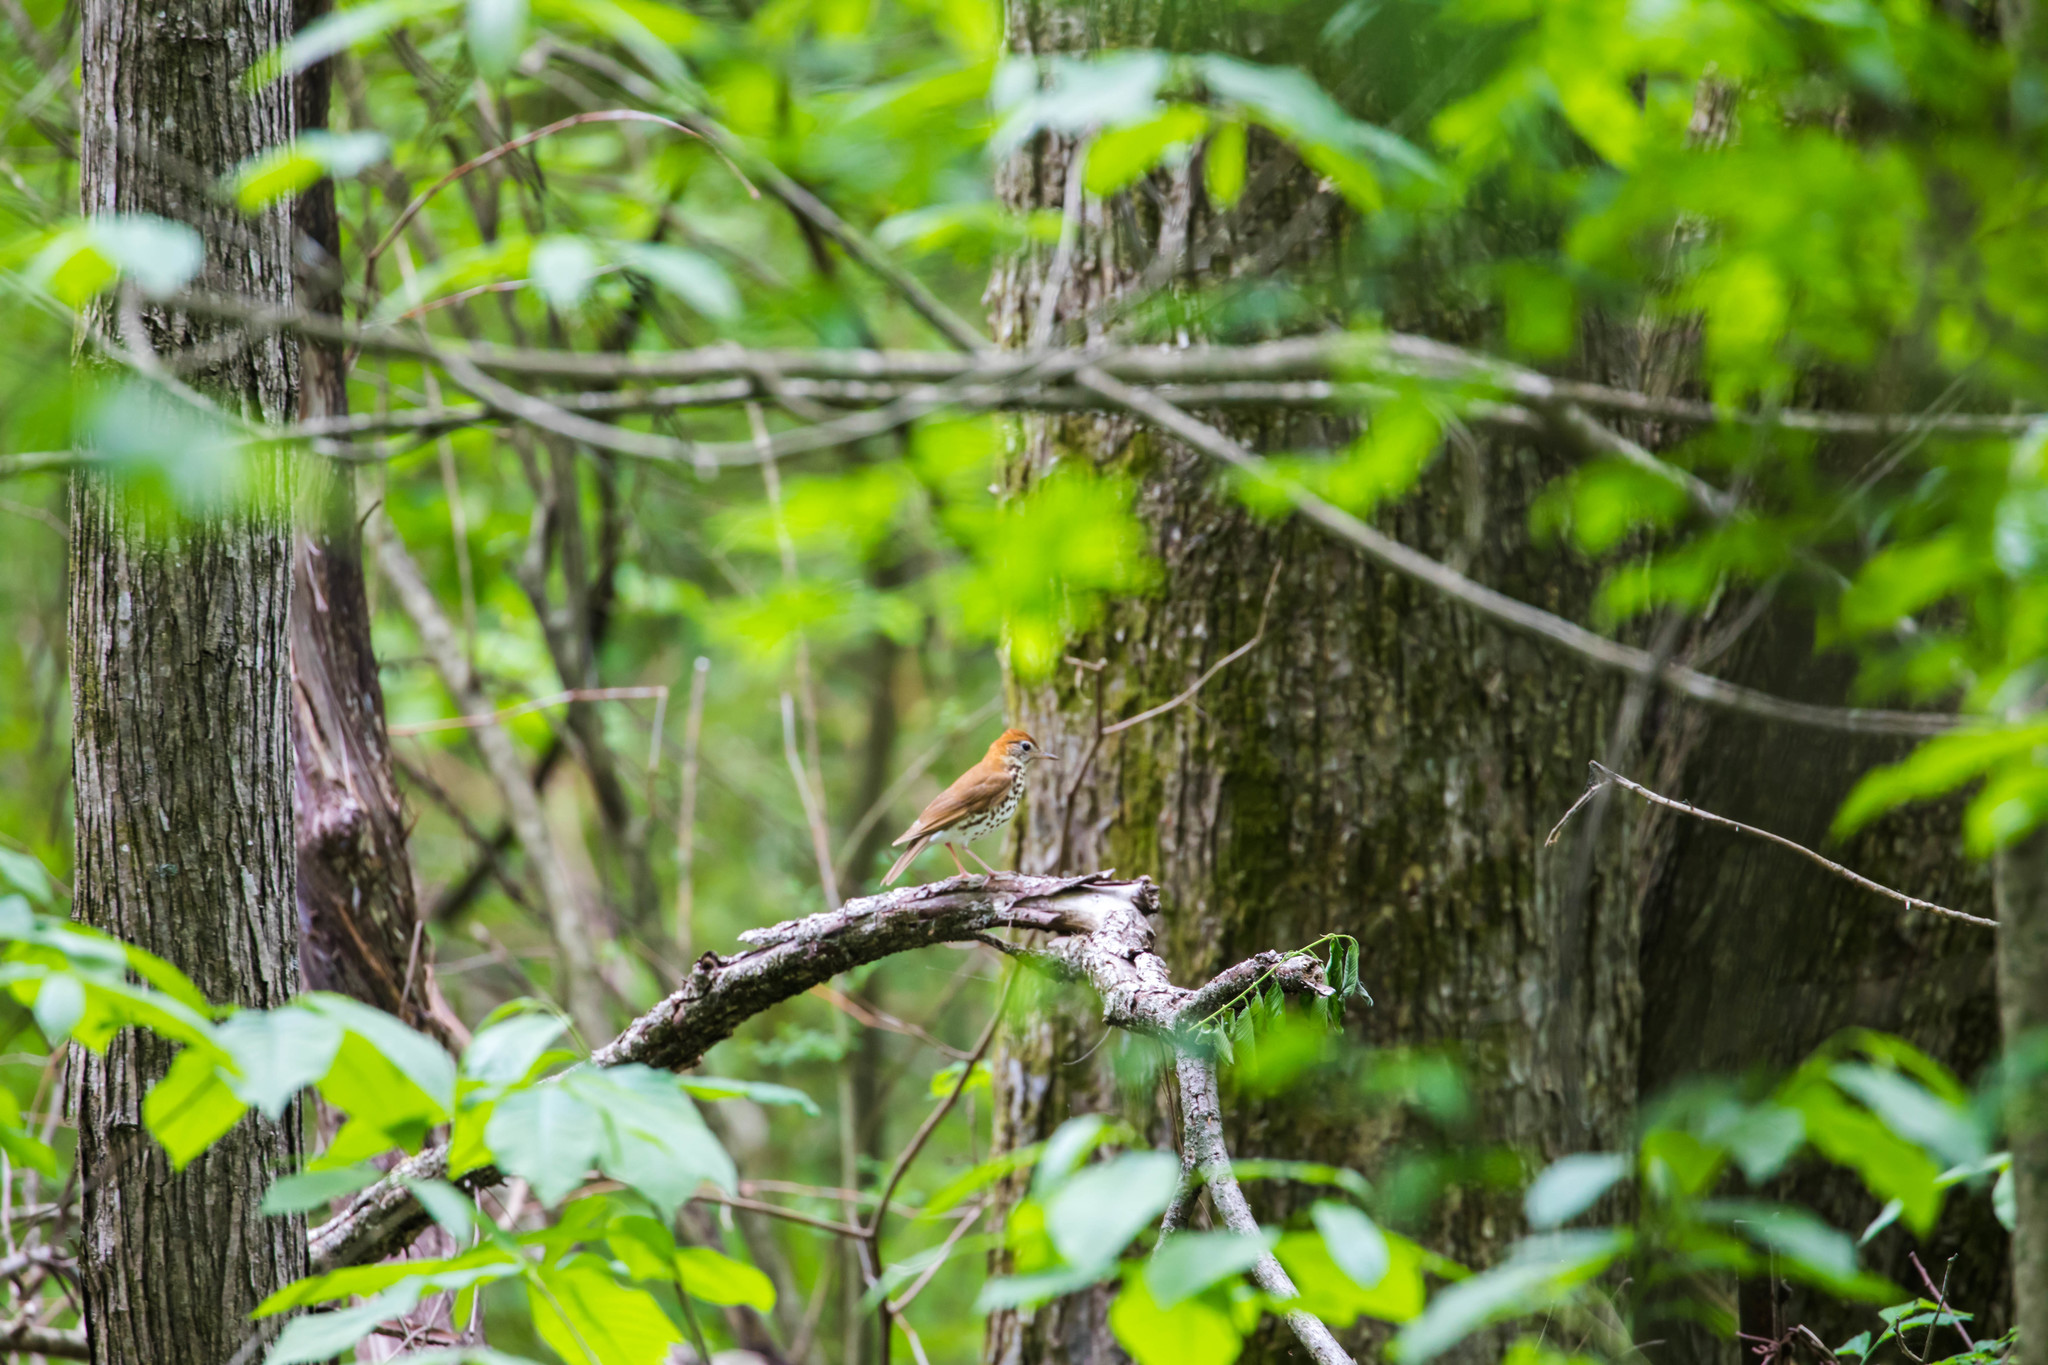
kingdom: Animalia
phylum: Chordata
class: Aves
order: Passeriformes
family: Turdidae
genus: Hylocichla
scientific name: Hylocichla mustelina
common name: Wood thrush
